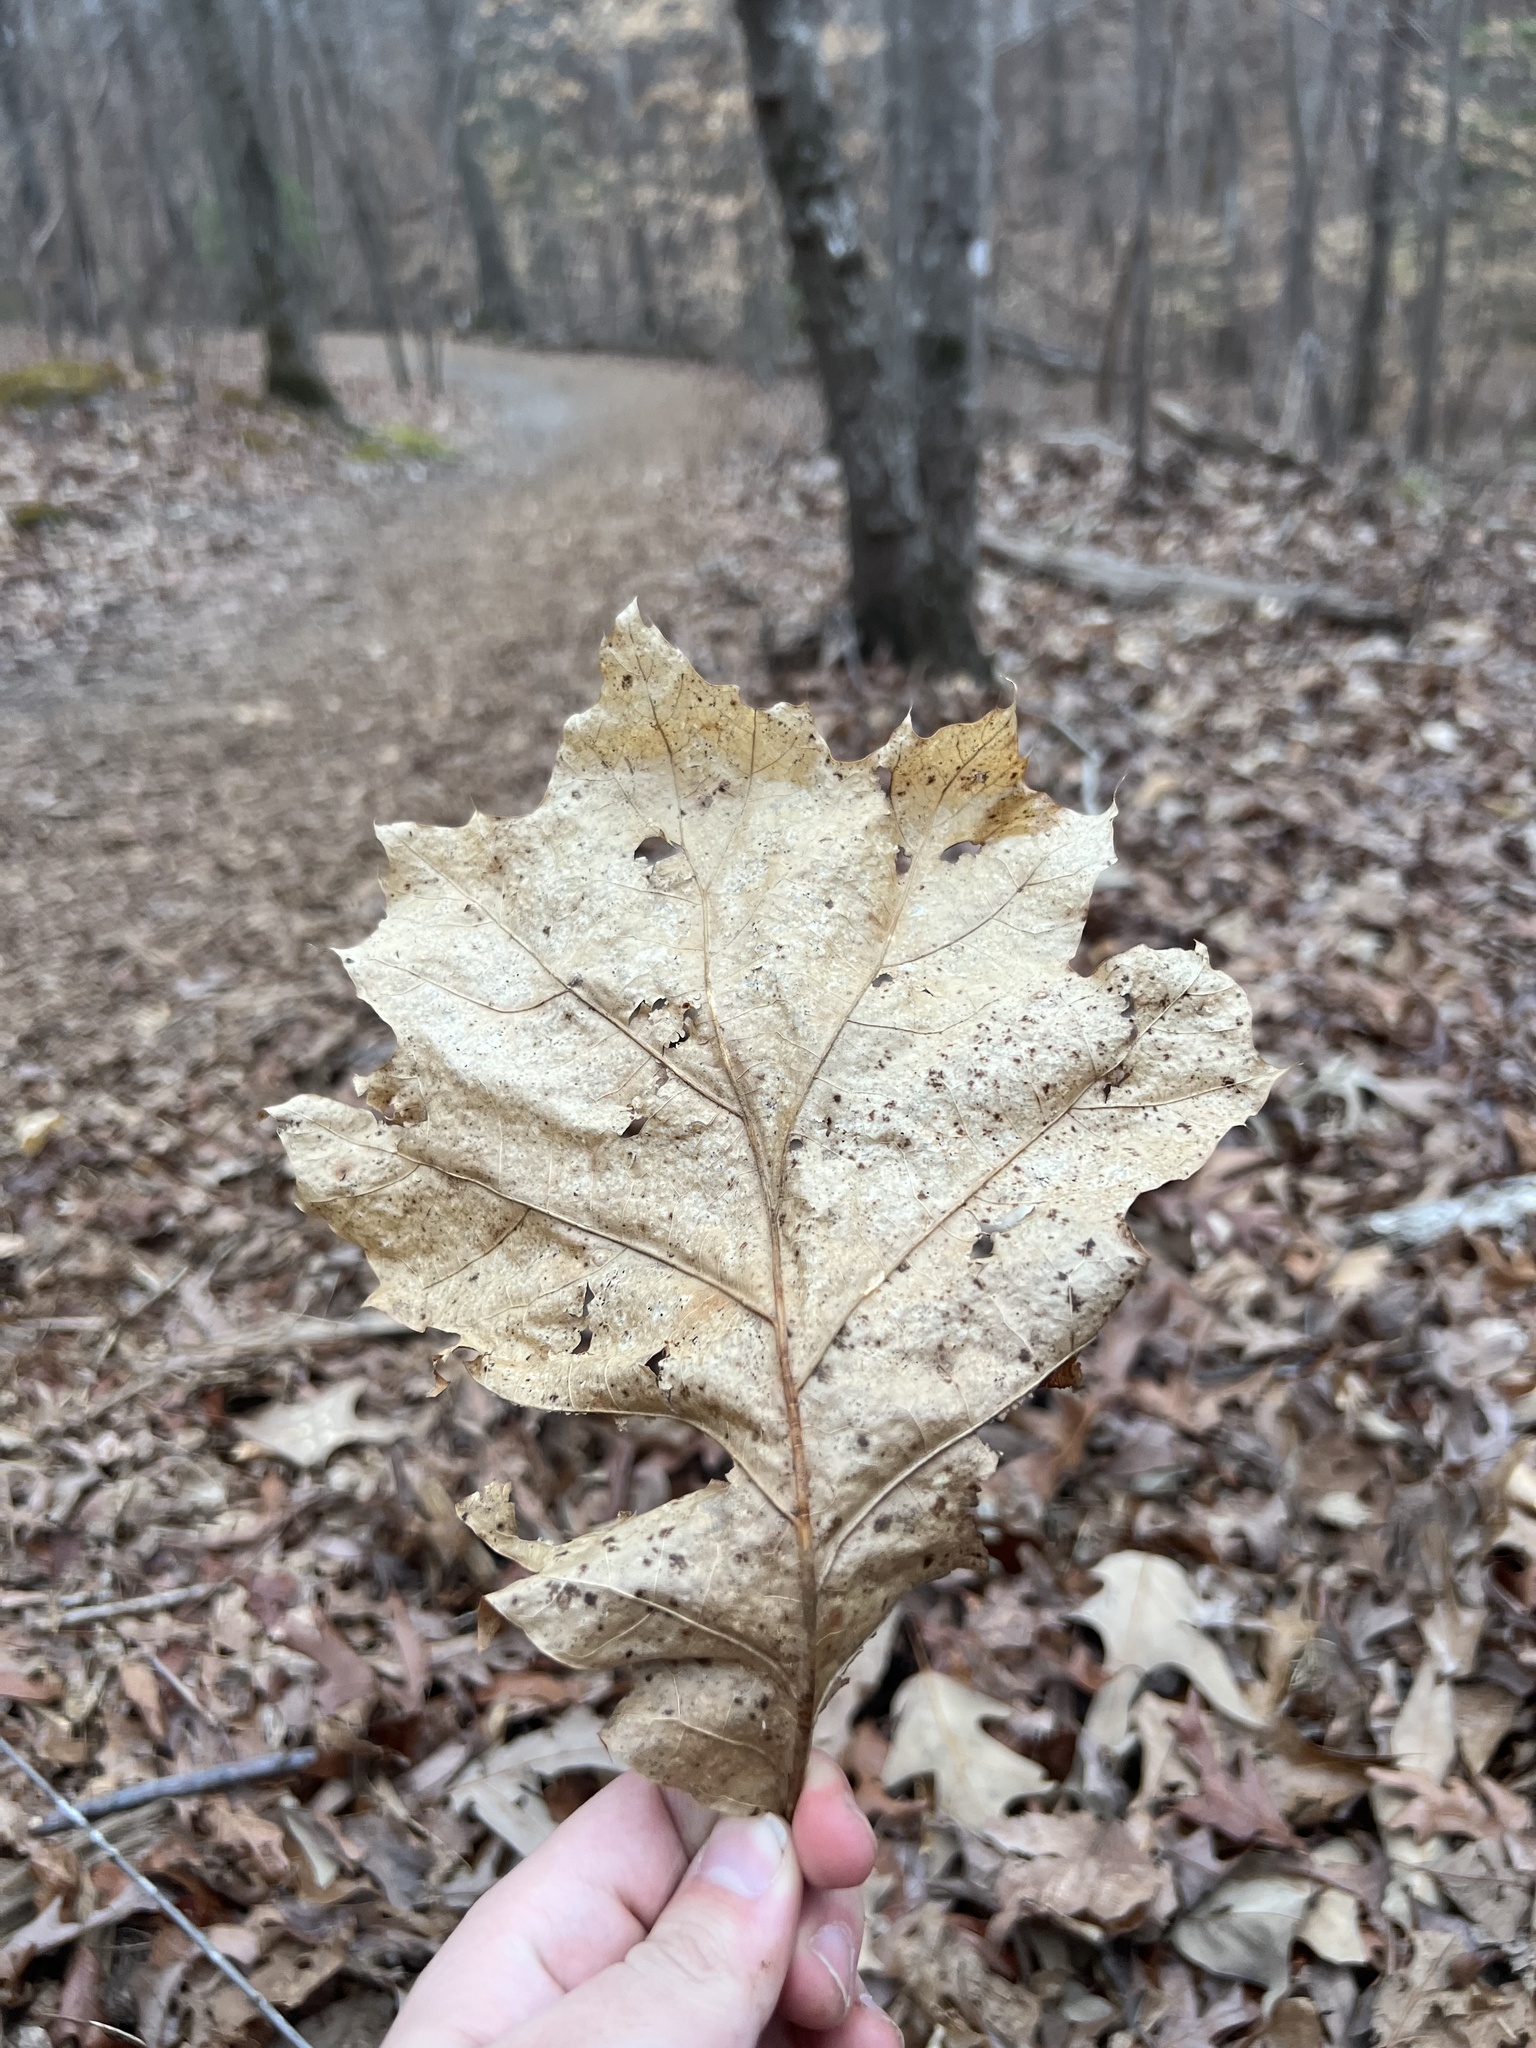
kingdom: Plantae
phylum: Tracheophyta
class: Magnoliopsida
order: Fagales
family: Fagaceae
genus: Quercus
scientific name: Quercus rubra
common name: Red oak
